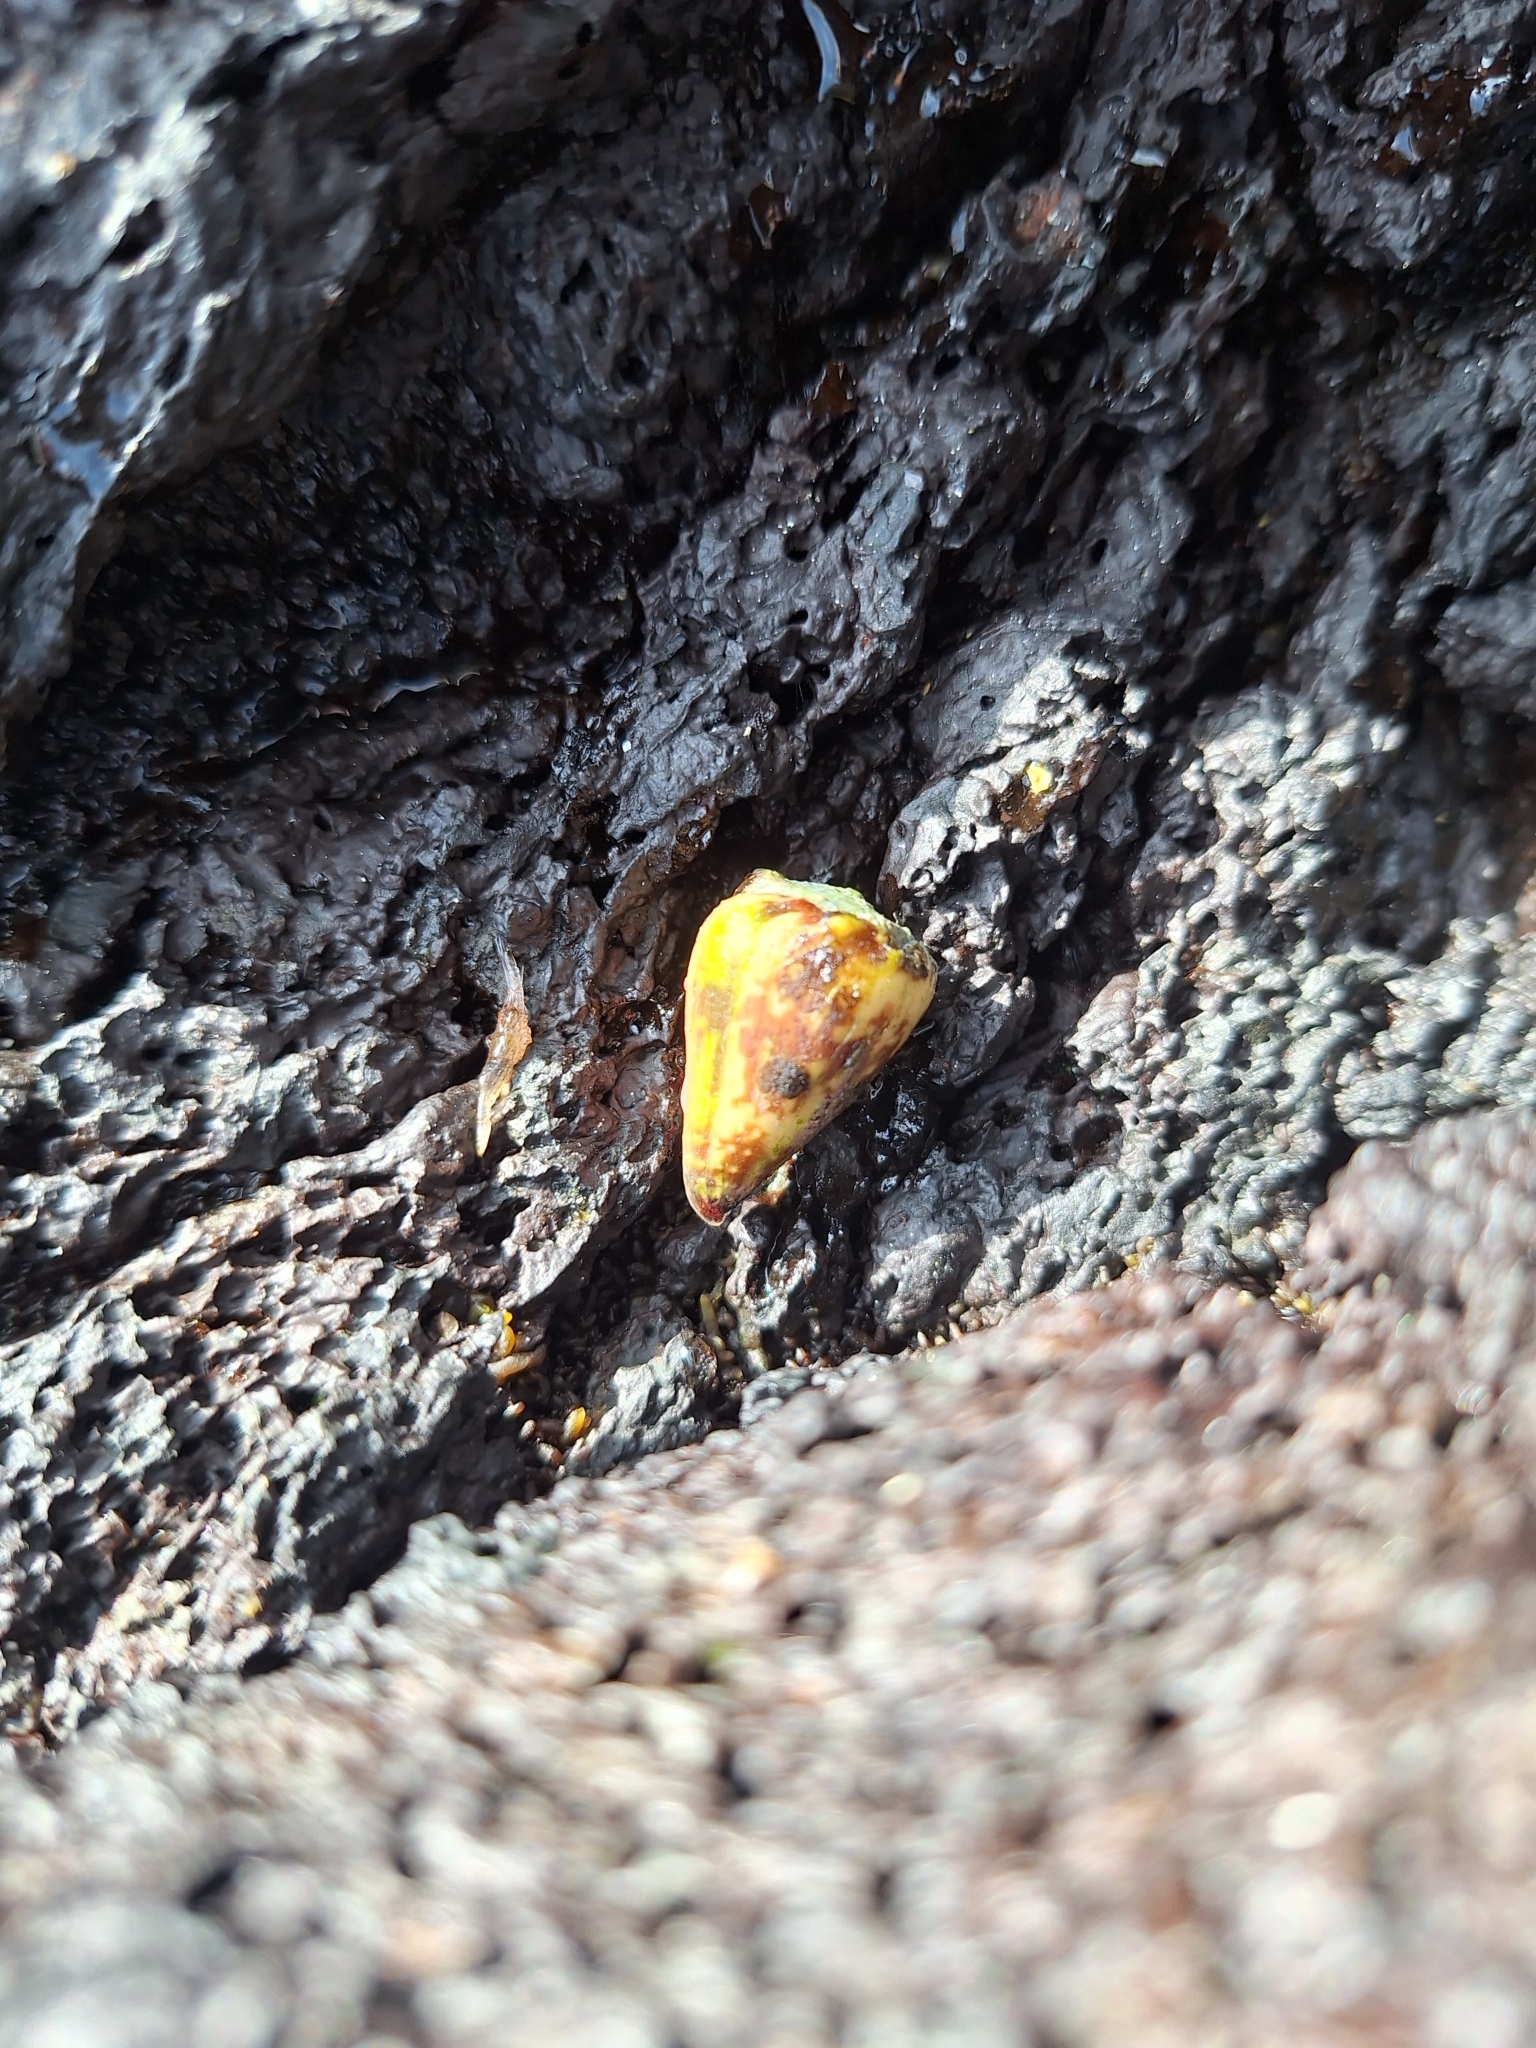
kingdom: Animalia
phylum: Mollusca
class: Gastropoda
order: Neogastropoda
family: Conidae
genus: Conus
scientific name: Conus nux
